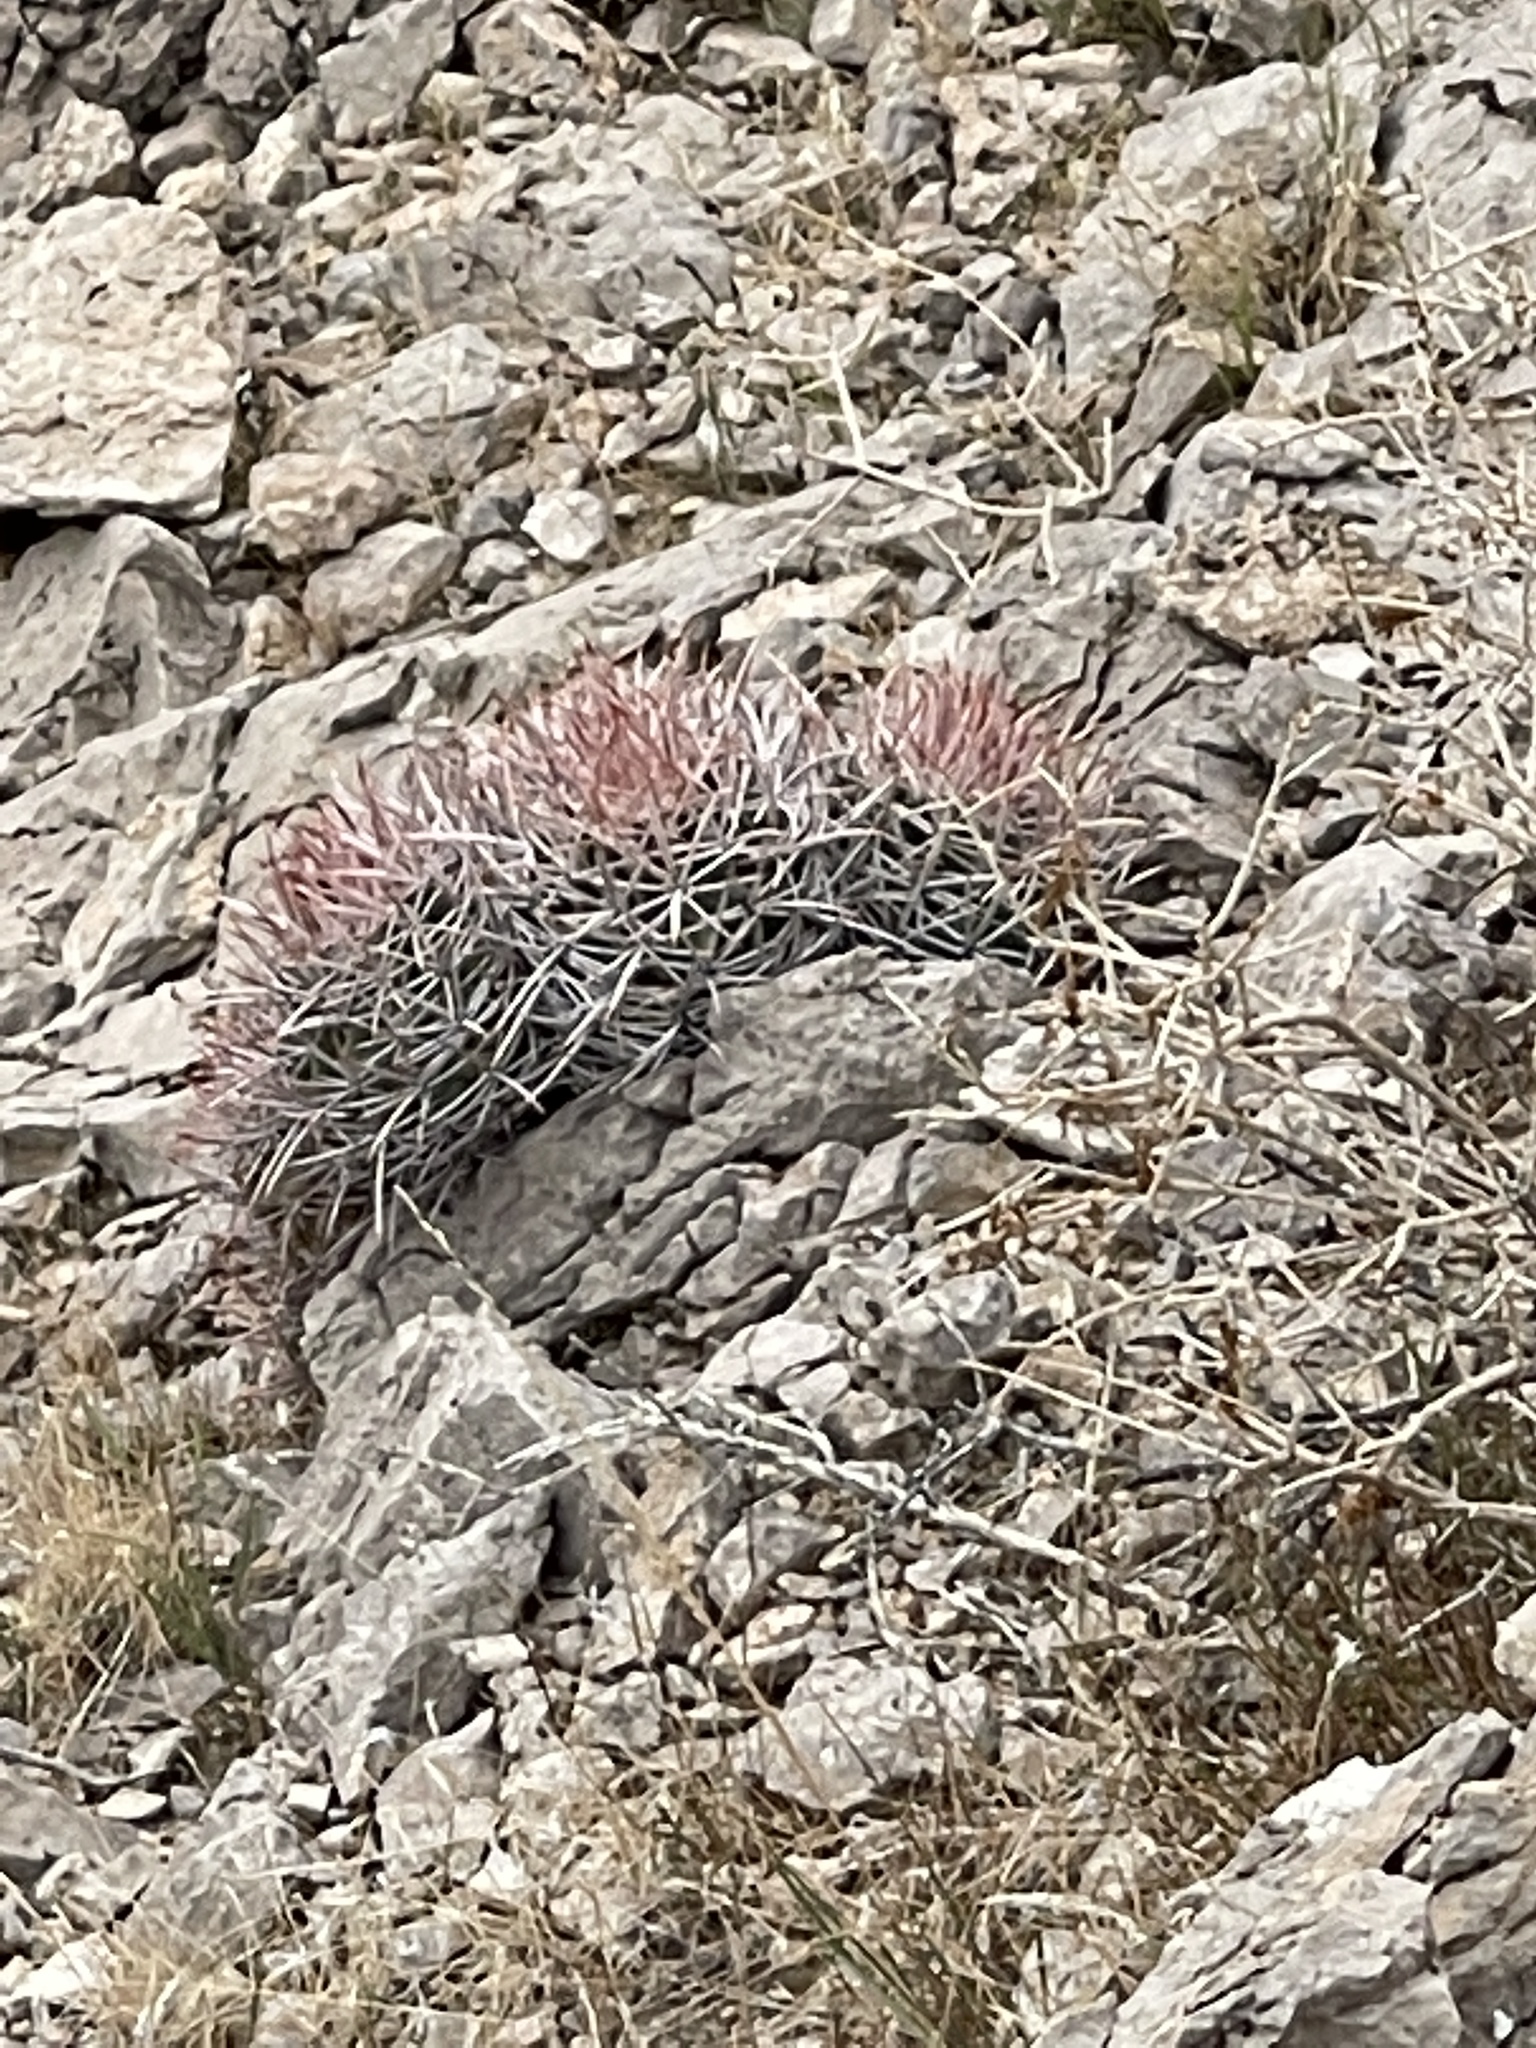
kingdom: Plantae
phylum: Tracheophyta
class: Magnoliopsida
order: Caryophyllales
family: Cactaceae
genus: Echinocactus
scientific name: Echinocactus polycephalus
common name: Cottontop cactus
